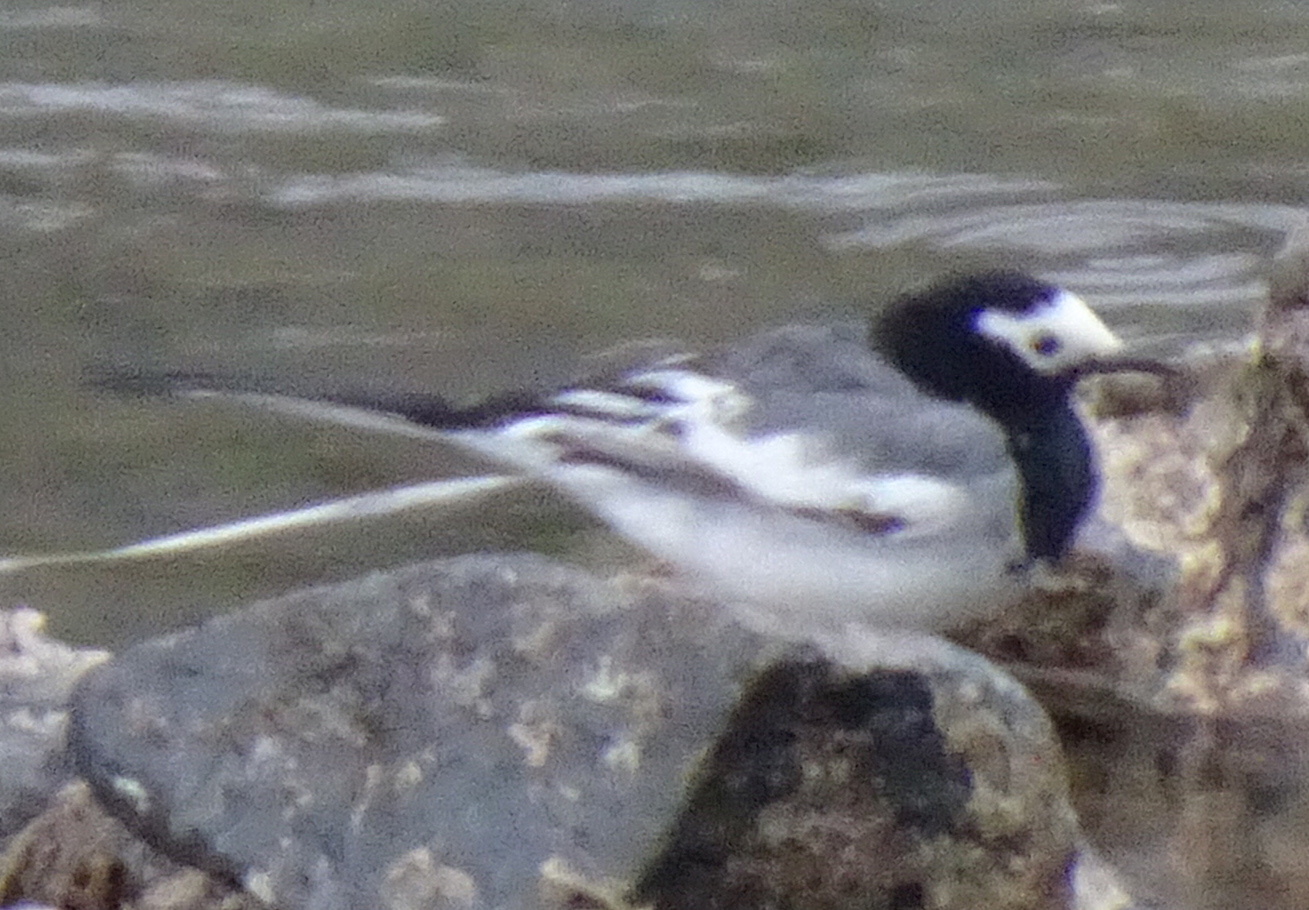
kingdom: Animalia
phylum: Chordata
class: Aves
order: Passeriformes
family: Motacillidae
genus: Motacilla
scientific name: Motacilla alba
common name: White wagtail
